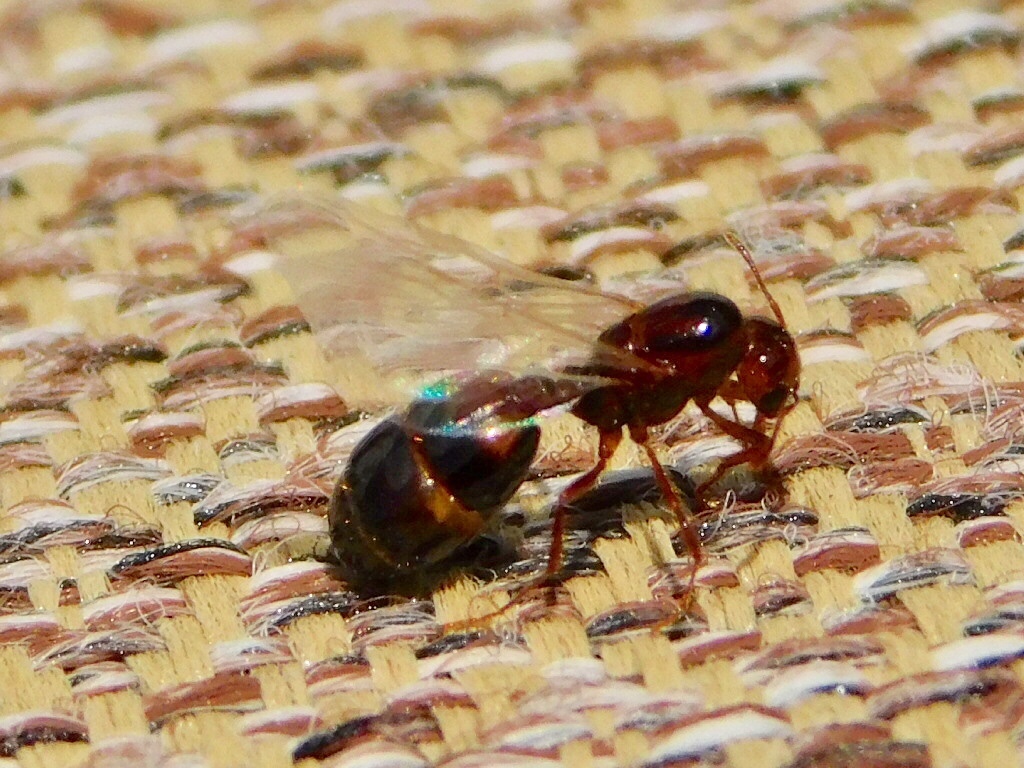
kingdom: Animalia
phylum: Arthropoda
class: Insecta
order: Hymenoptera
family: Formicidae
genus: Solenopsis
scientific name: Solenopsis invicta
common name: Red imported fire ant
